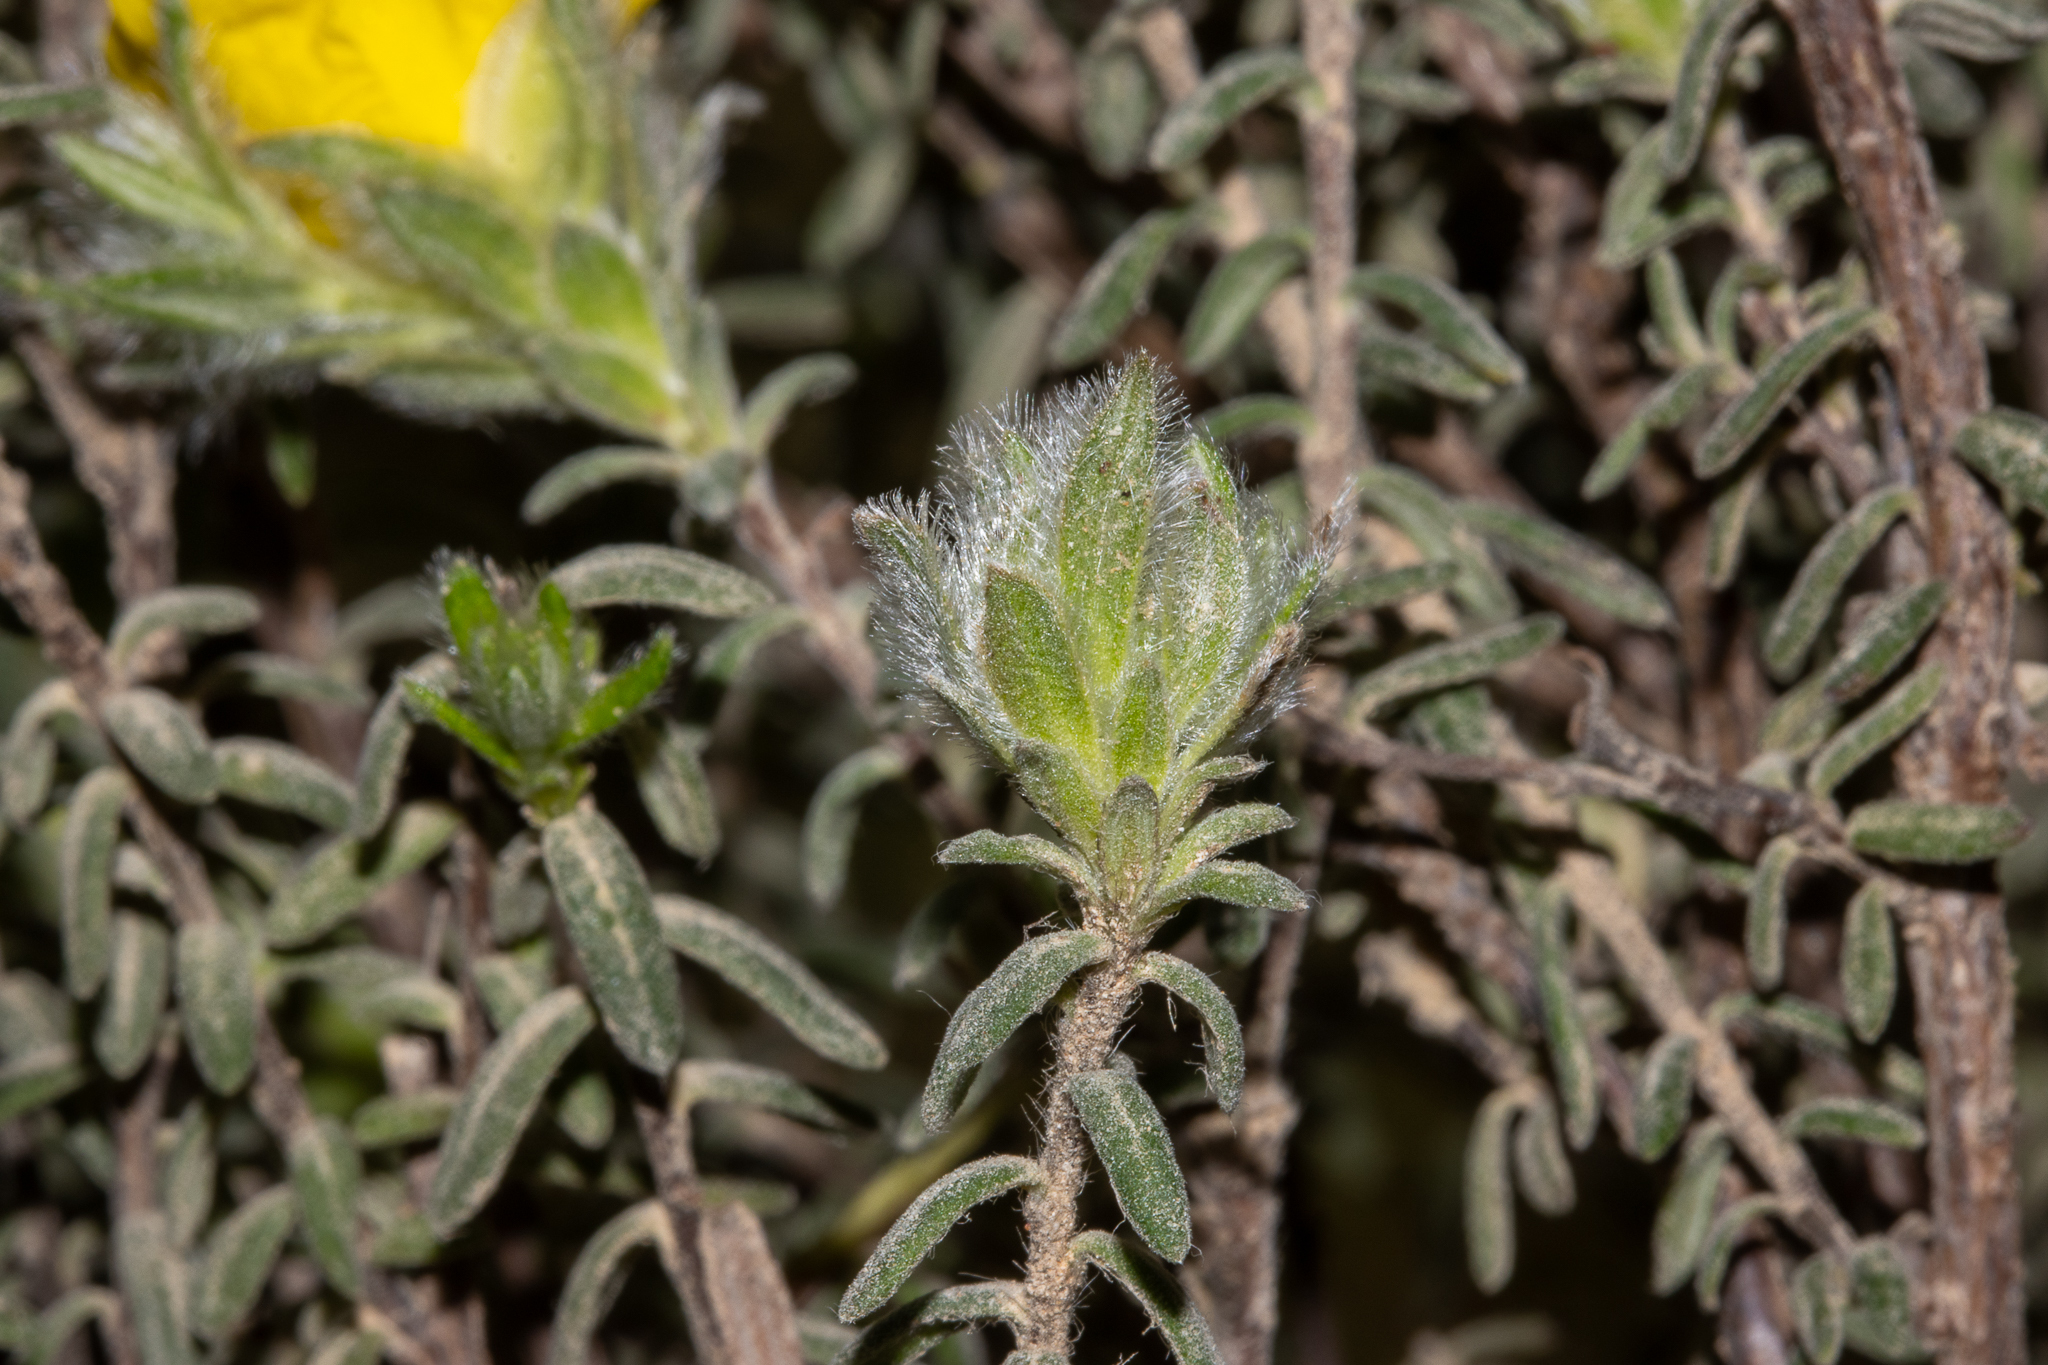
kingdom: Plantae
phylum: Tracheophyta
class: Magnoliopsida
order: Dilleniales
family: Dilleniaceae
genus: Hibbertia
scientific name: Hibbertia crinita
